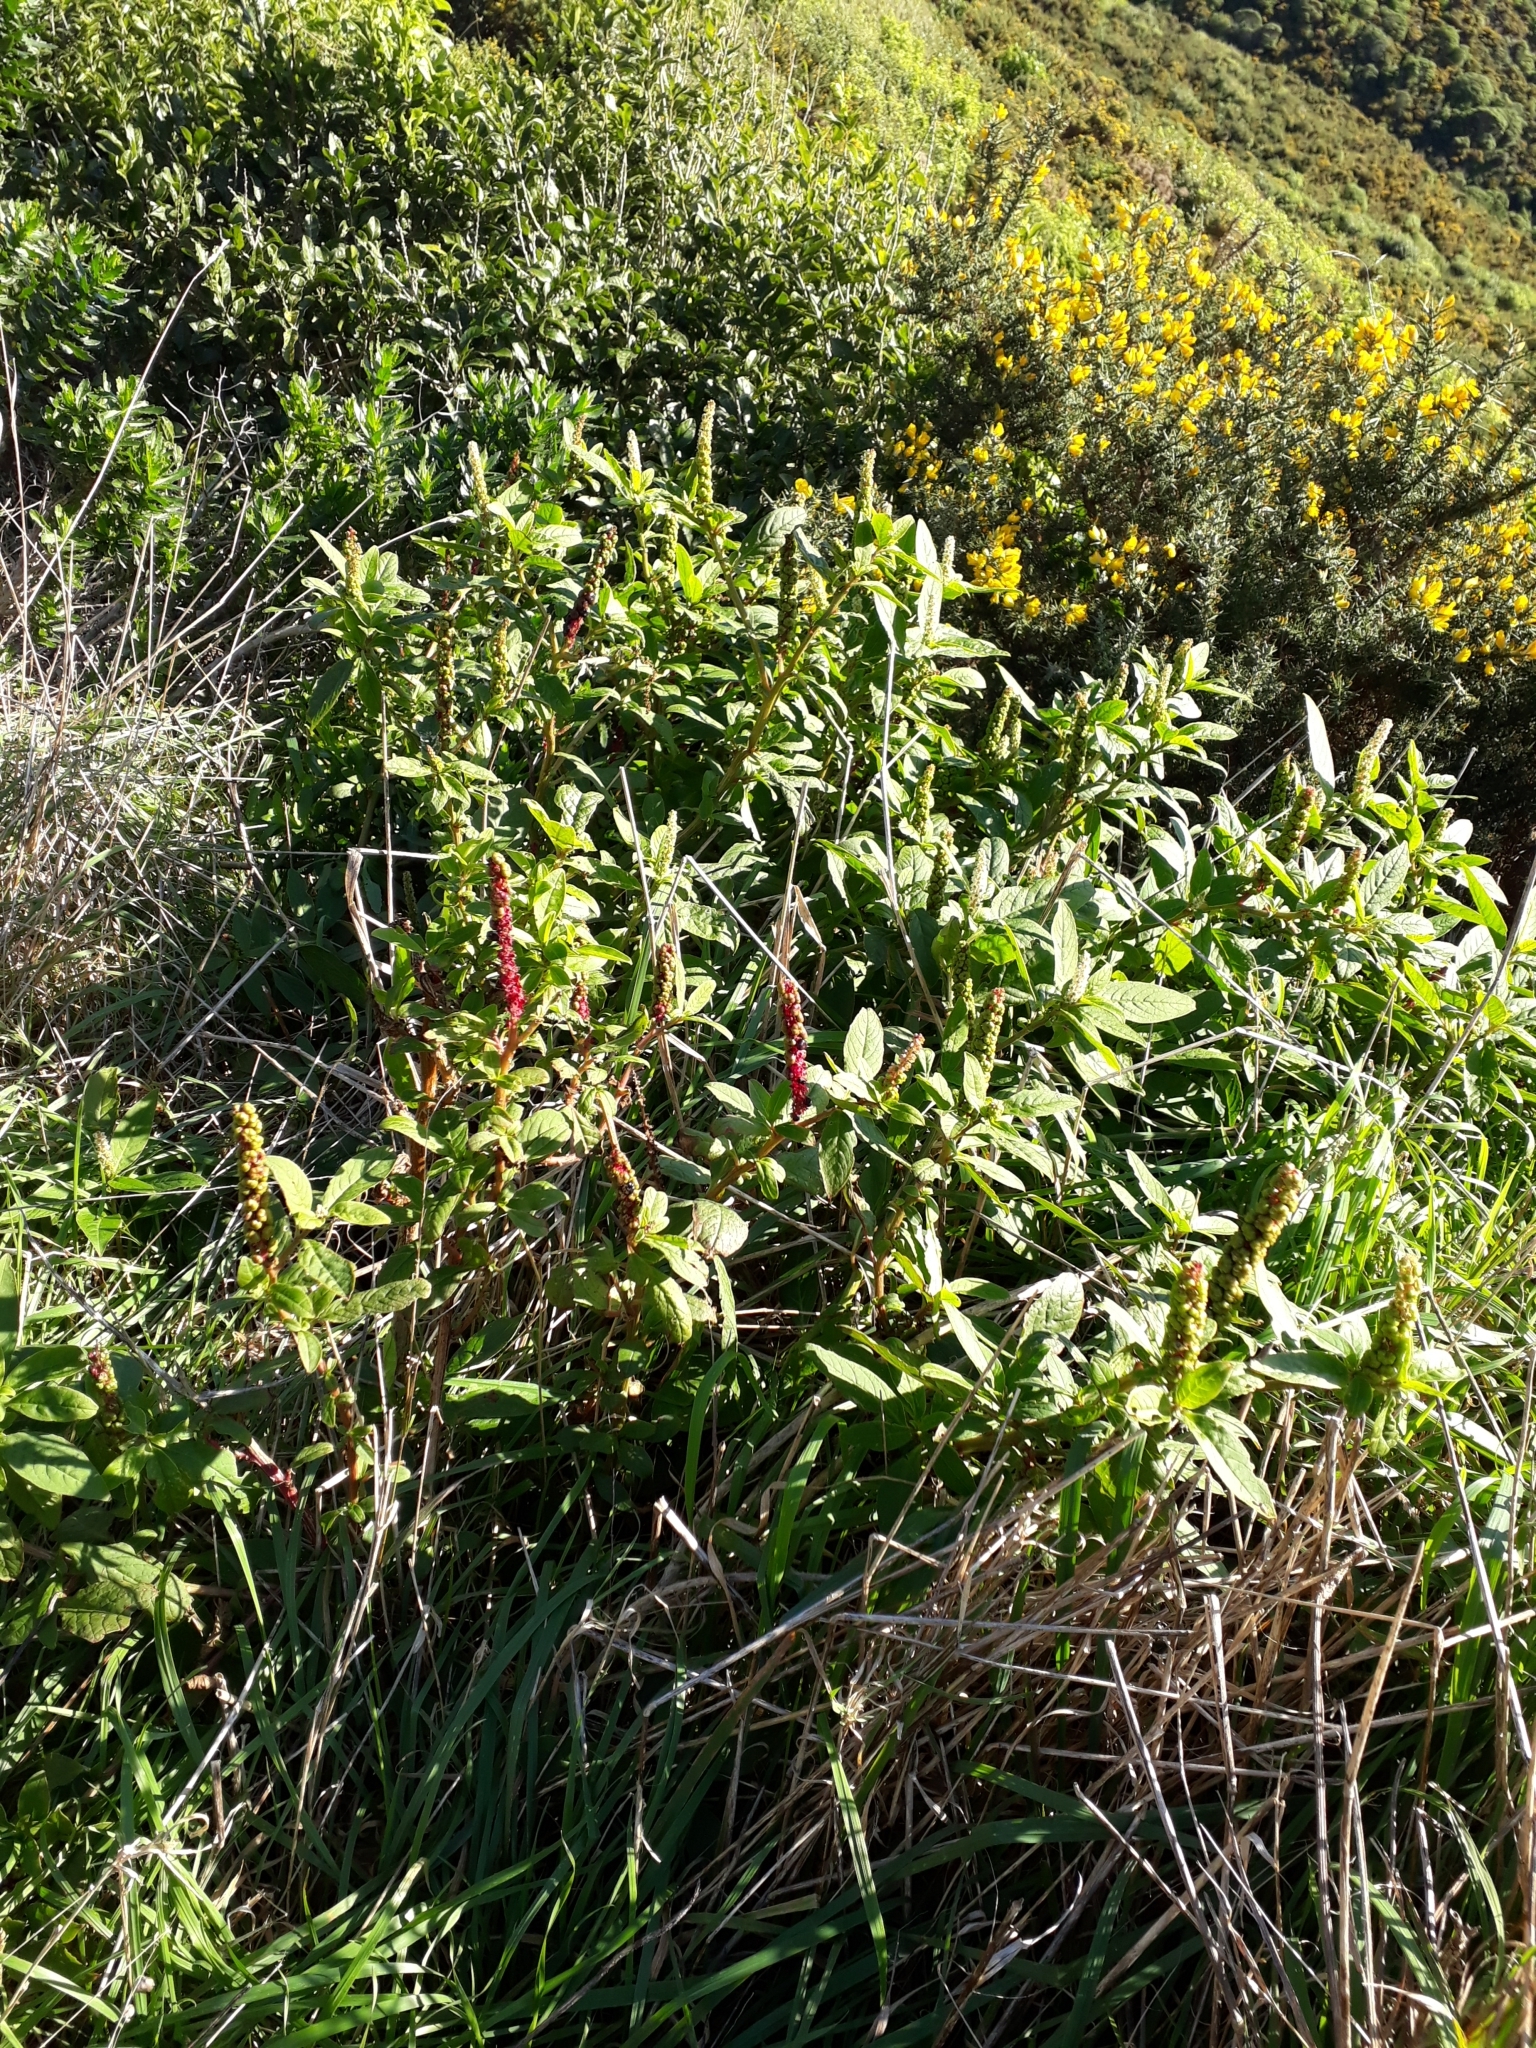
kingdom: Plantae
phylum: Tracheophyta
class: Magnoliopsida
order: Caryophyllales
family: Phytolaccaceae
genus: Phytolacca
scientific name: Phytolacca icosandra
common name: Button pokeweed
